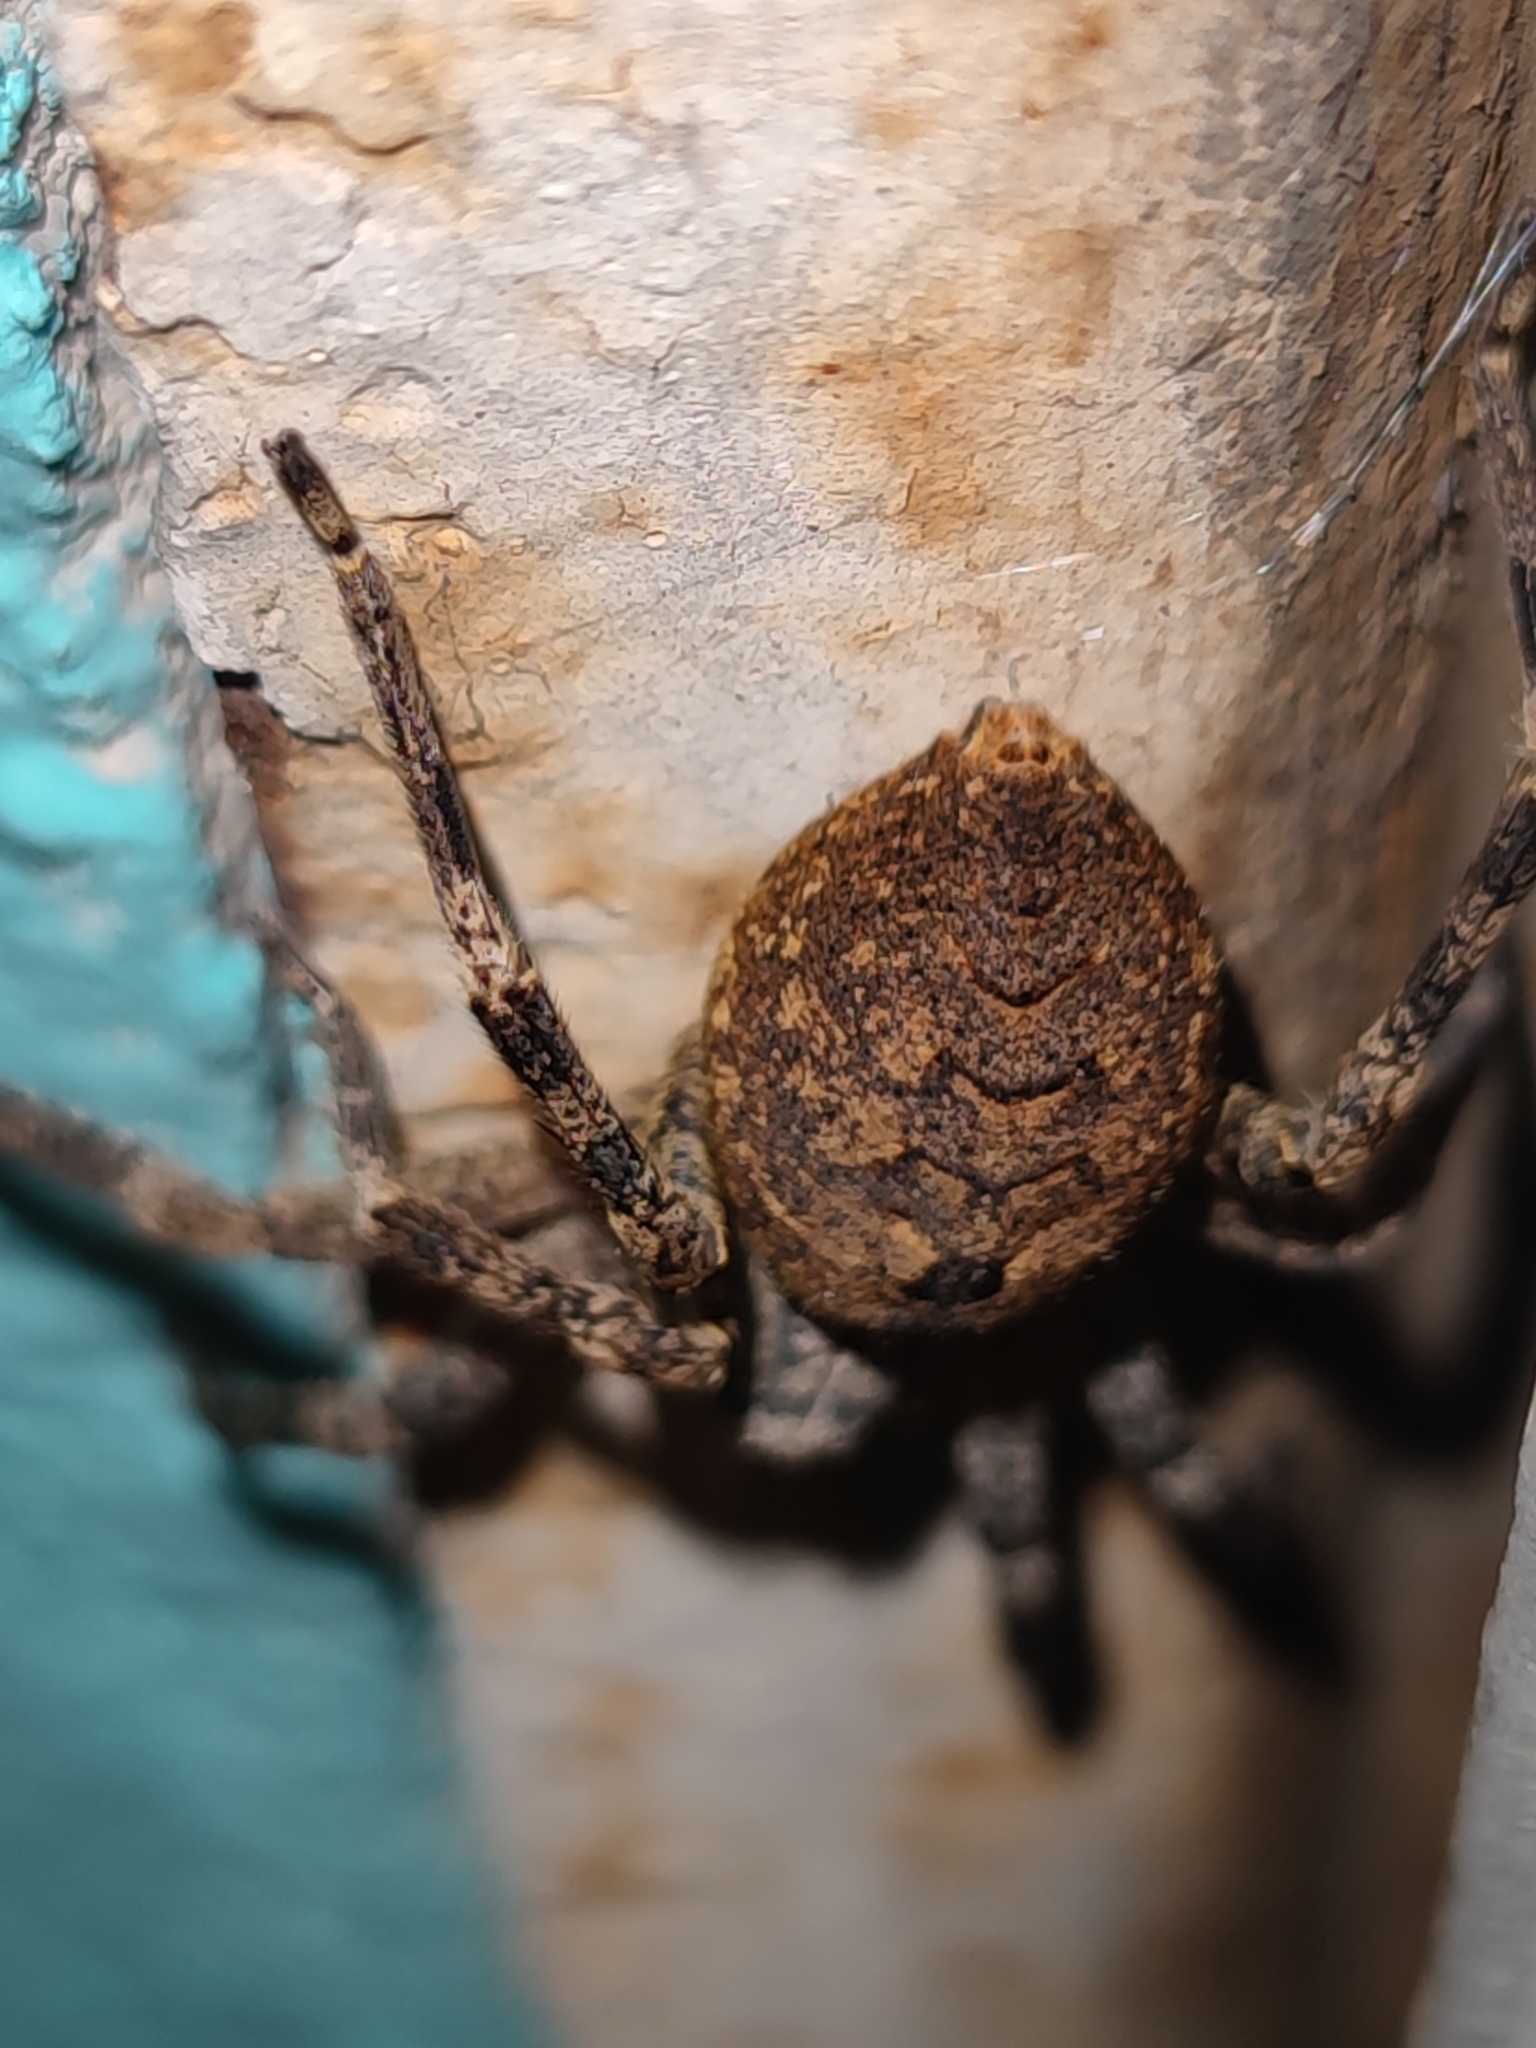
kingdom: Animalia
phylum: Arthropoda
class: Arachnida
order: Araneae
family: Zoropsidae
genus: Zoropsis
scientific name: Zoropsis spinimana
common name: Zoropsid spider
